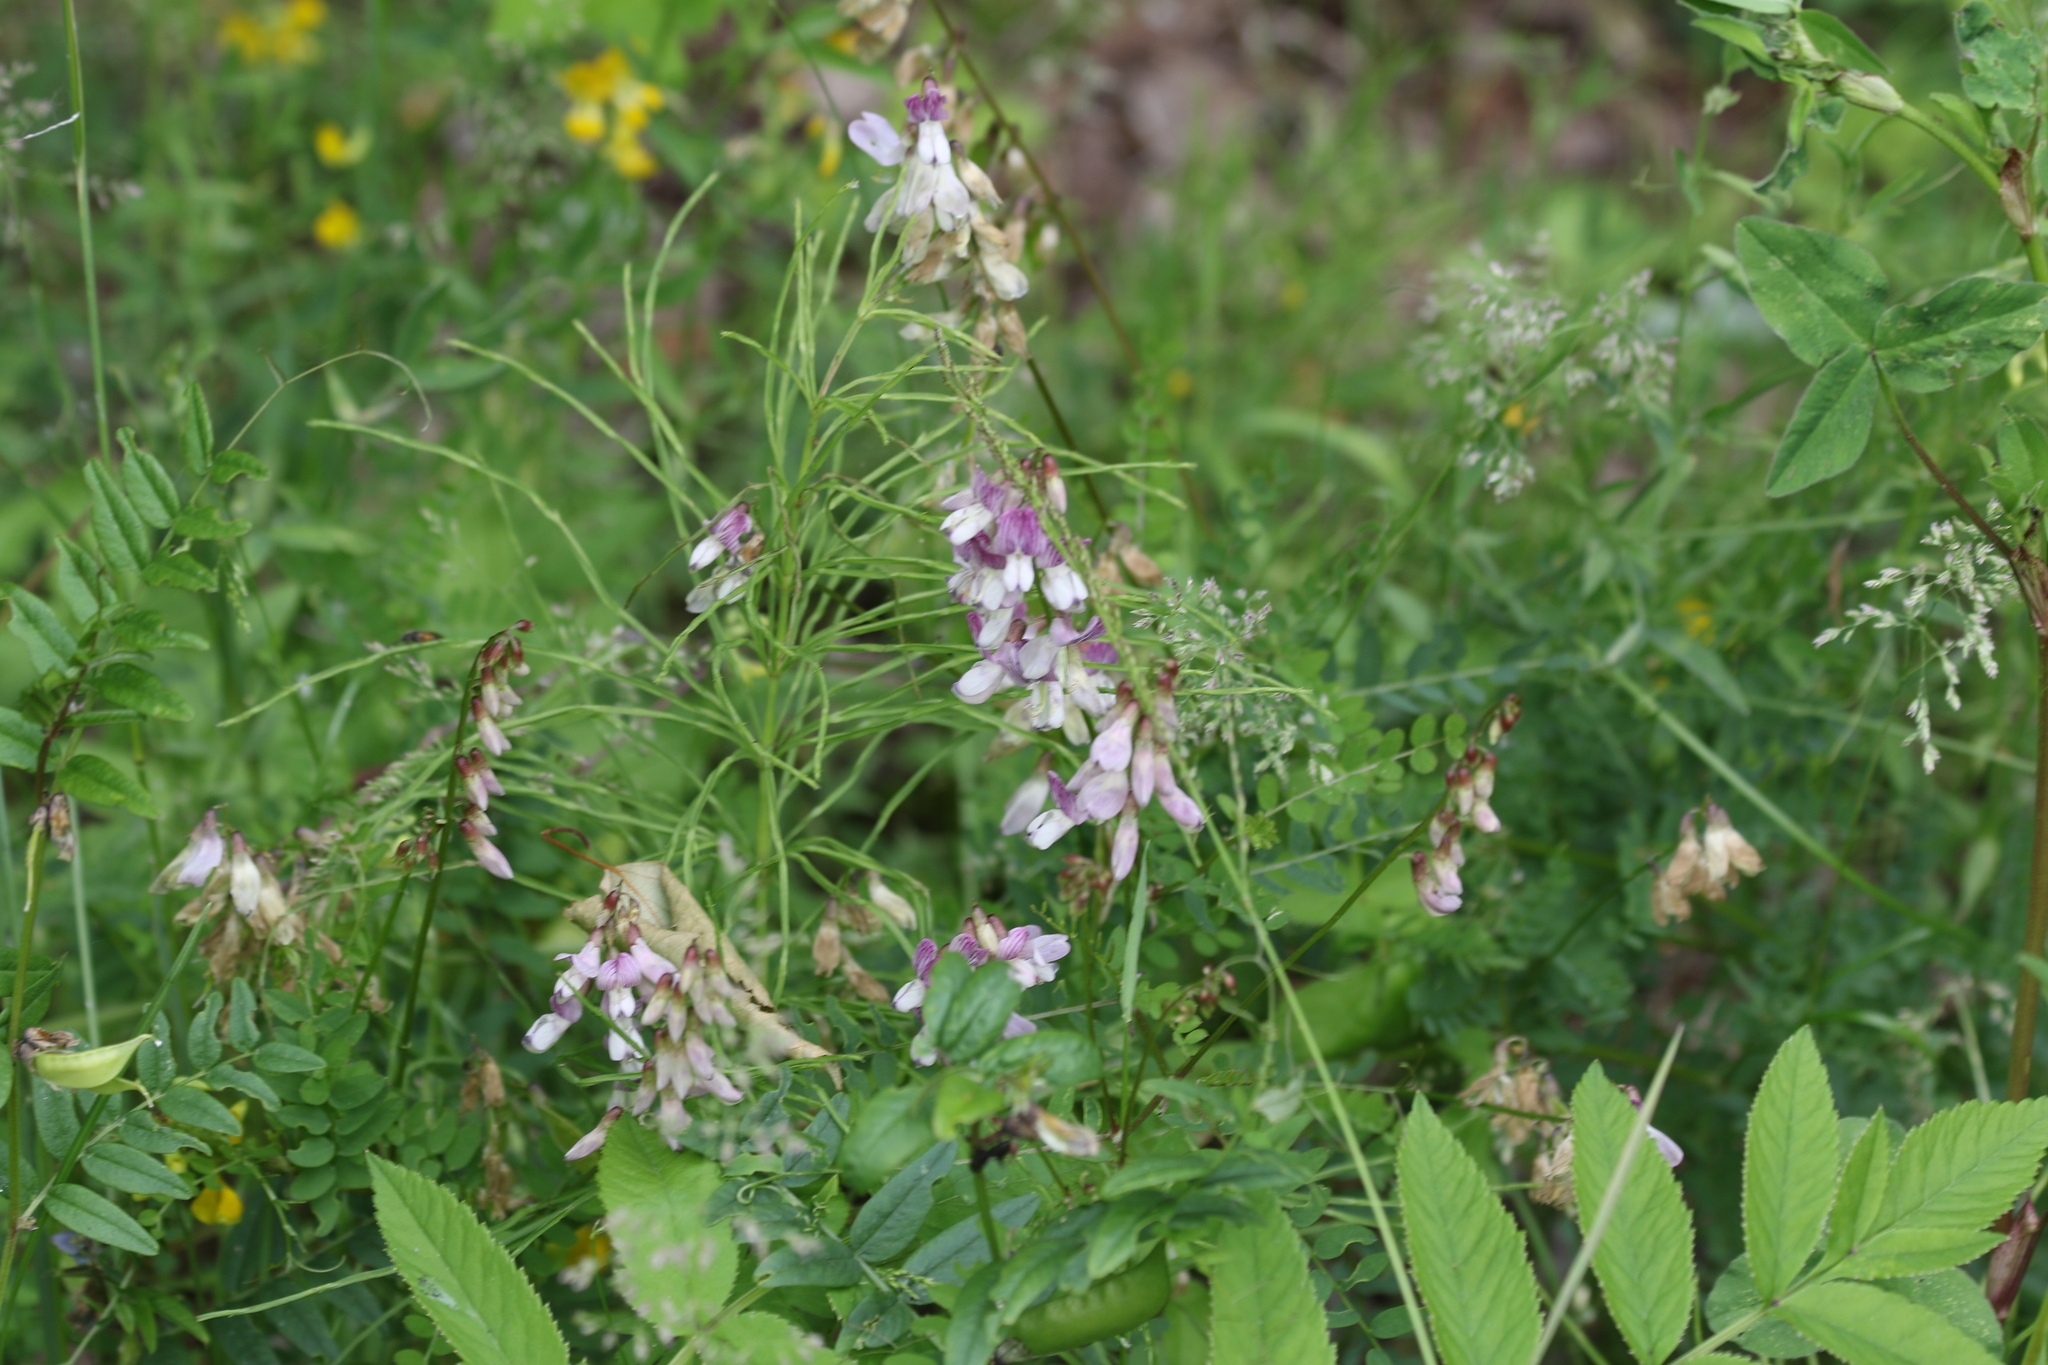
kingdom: Plantae
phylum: Tracheophyta
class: Magnoliopsida
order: Fabales
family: Fabaceae
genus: Vicia
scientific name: Vicia sylvatica
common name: Wood vetch
